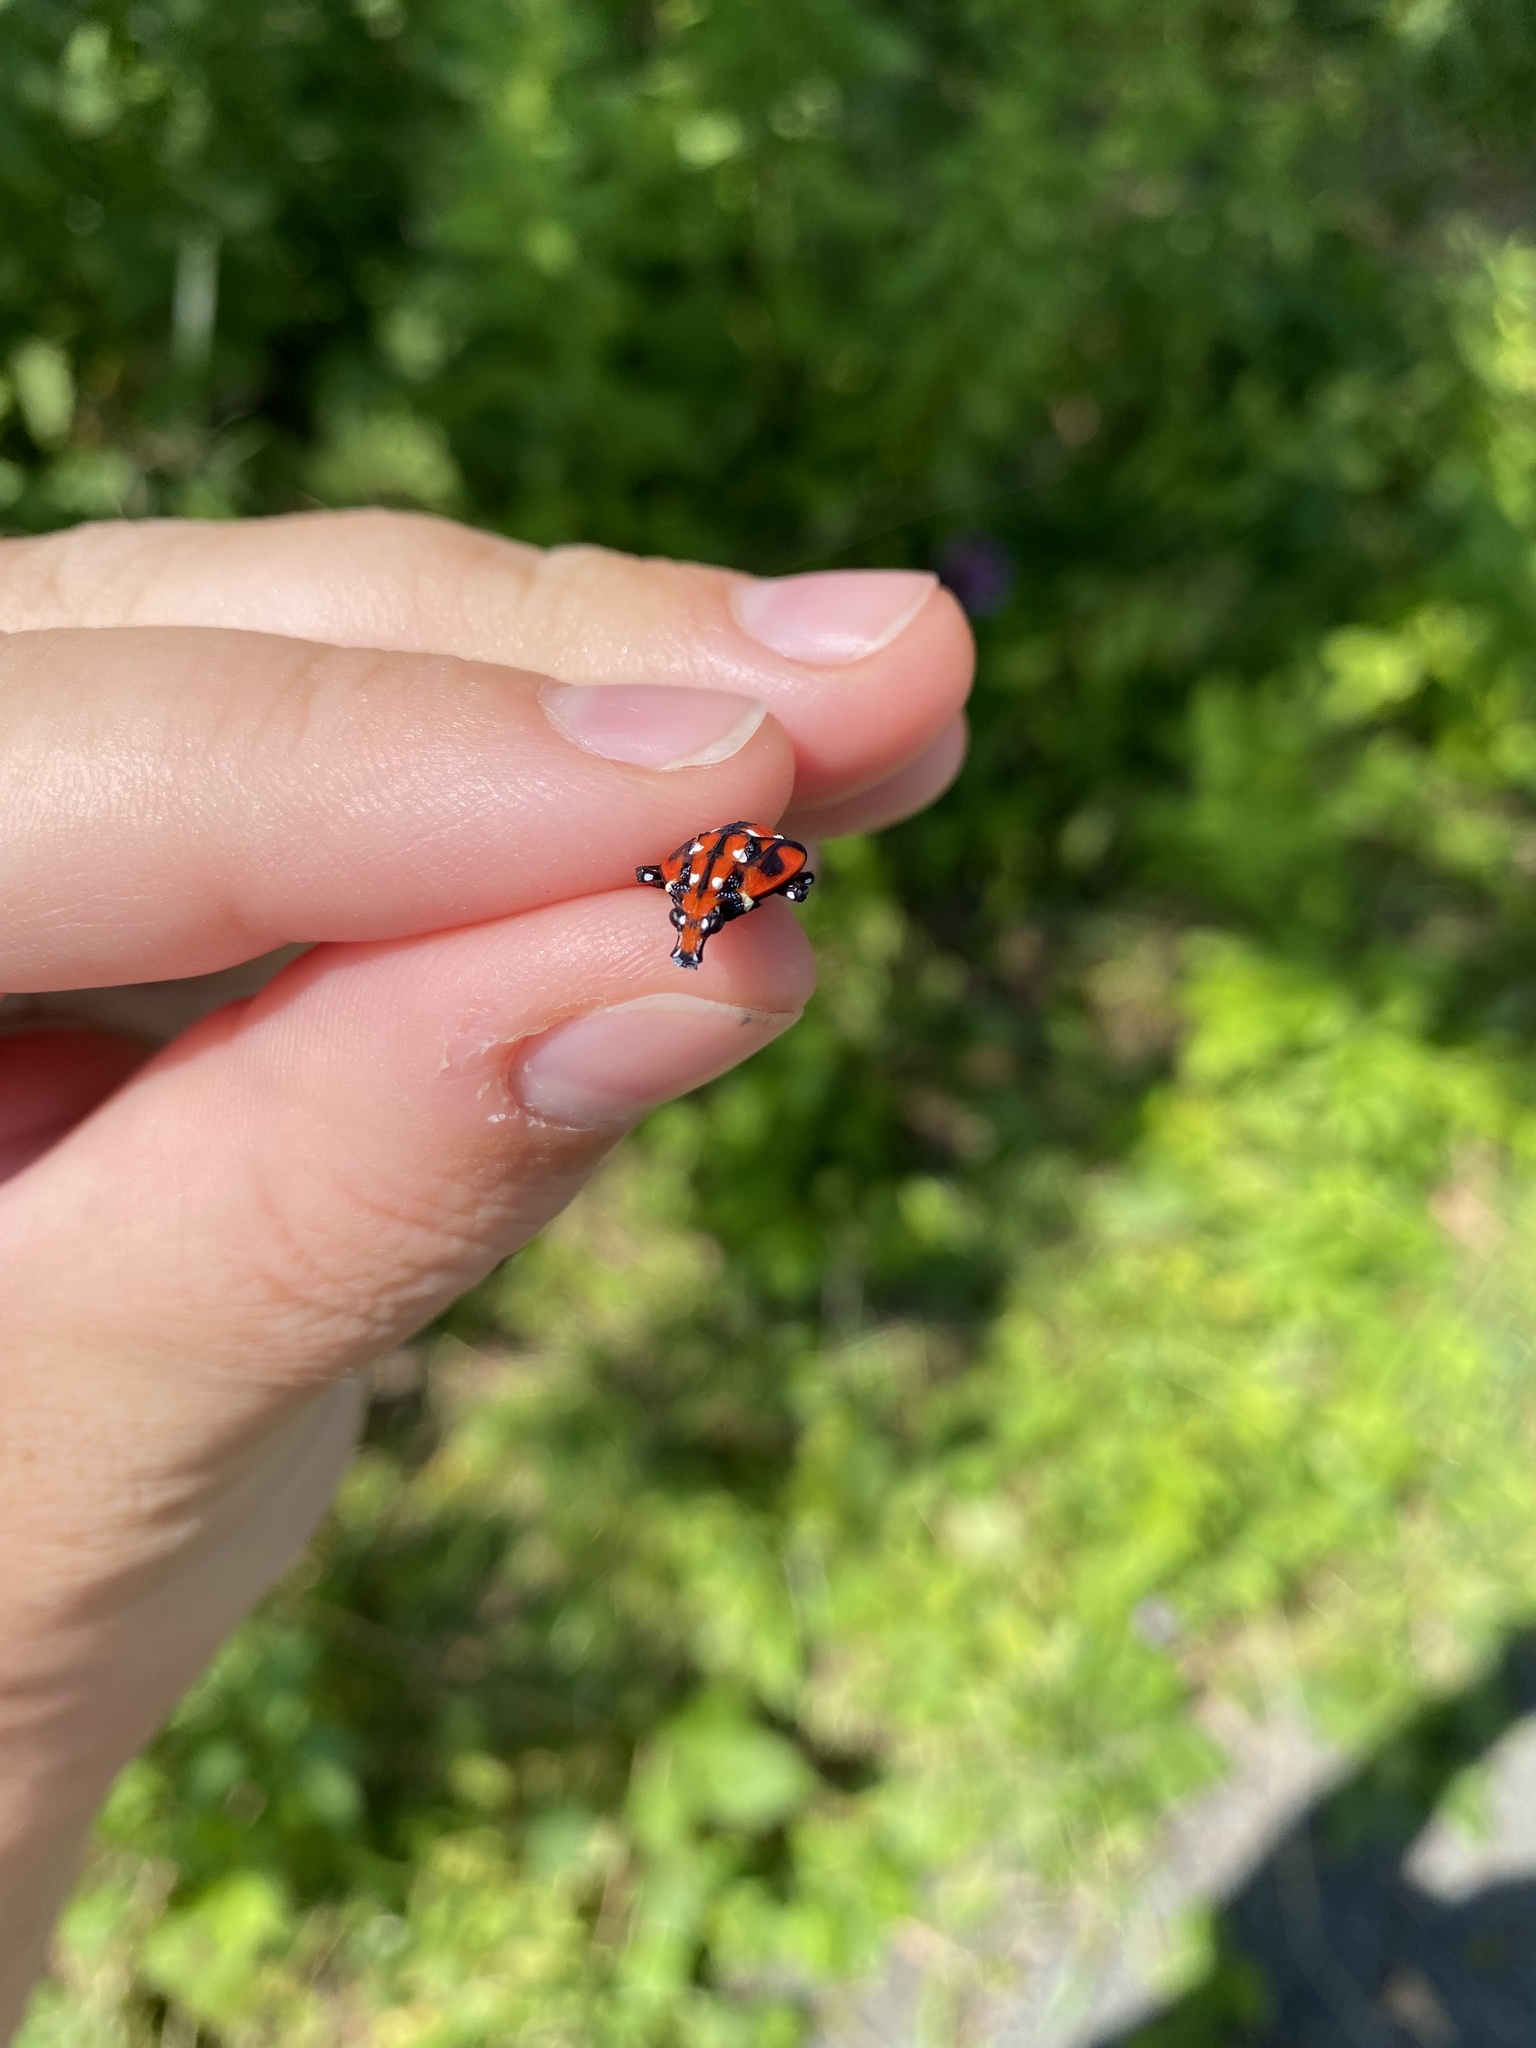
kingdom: Animalia
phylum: Arthropoda
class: Insecta
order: Hemiptera
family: Fulgoridae
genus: Lycorma
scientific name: Lycorma delicatula
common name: Spotted lanternfly
